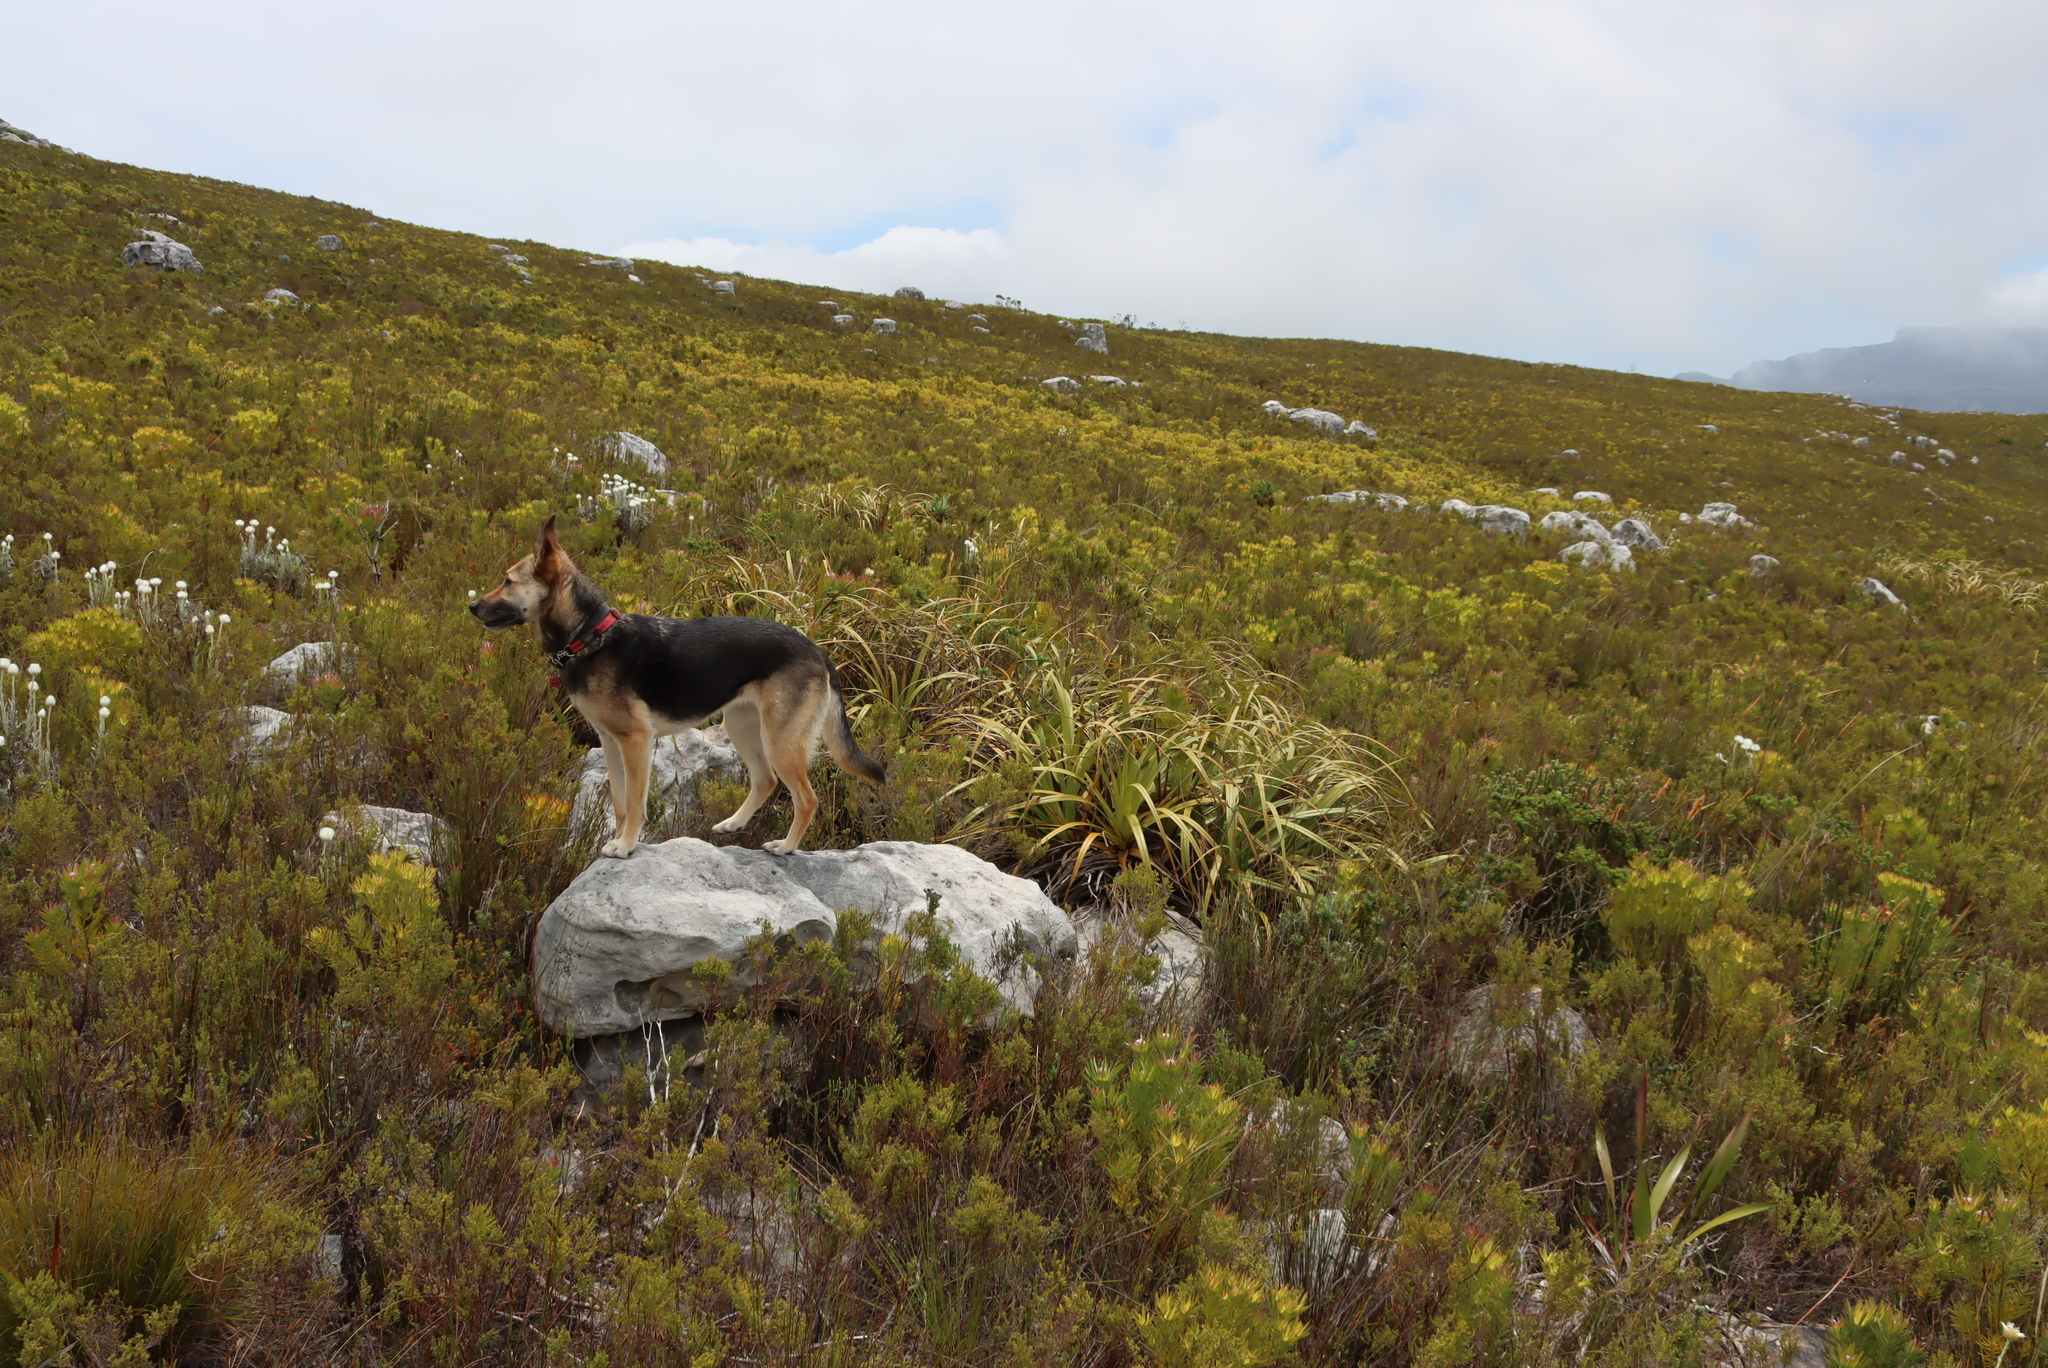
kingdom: Plantae
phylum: Tracheophyta
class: Liliopsida
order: Poales
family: Cyperaceae
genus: Tetraria
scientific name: Tetraria thermalis
